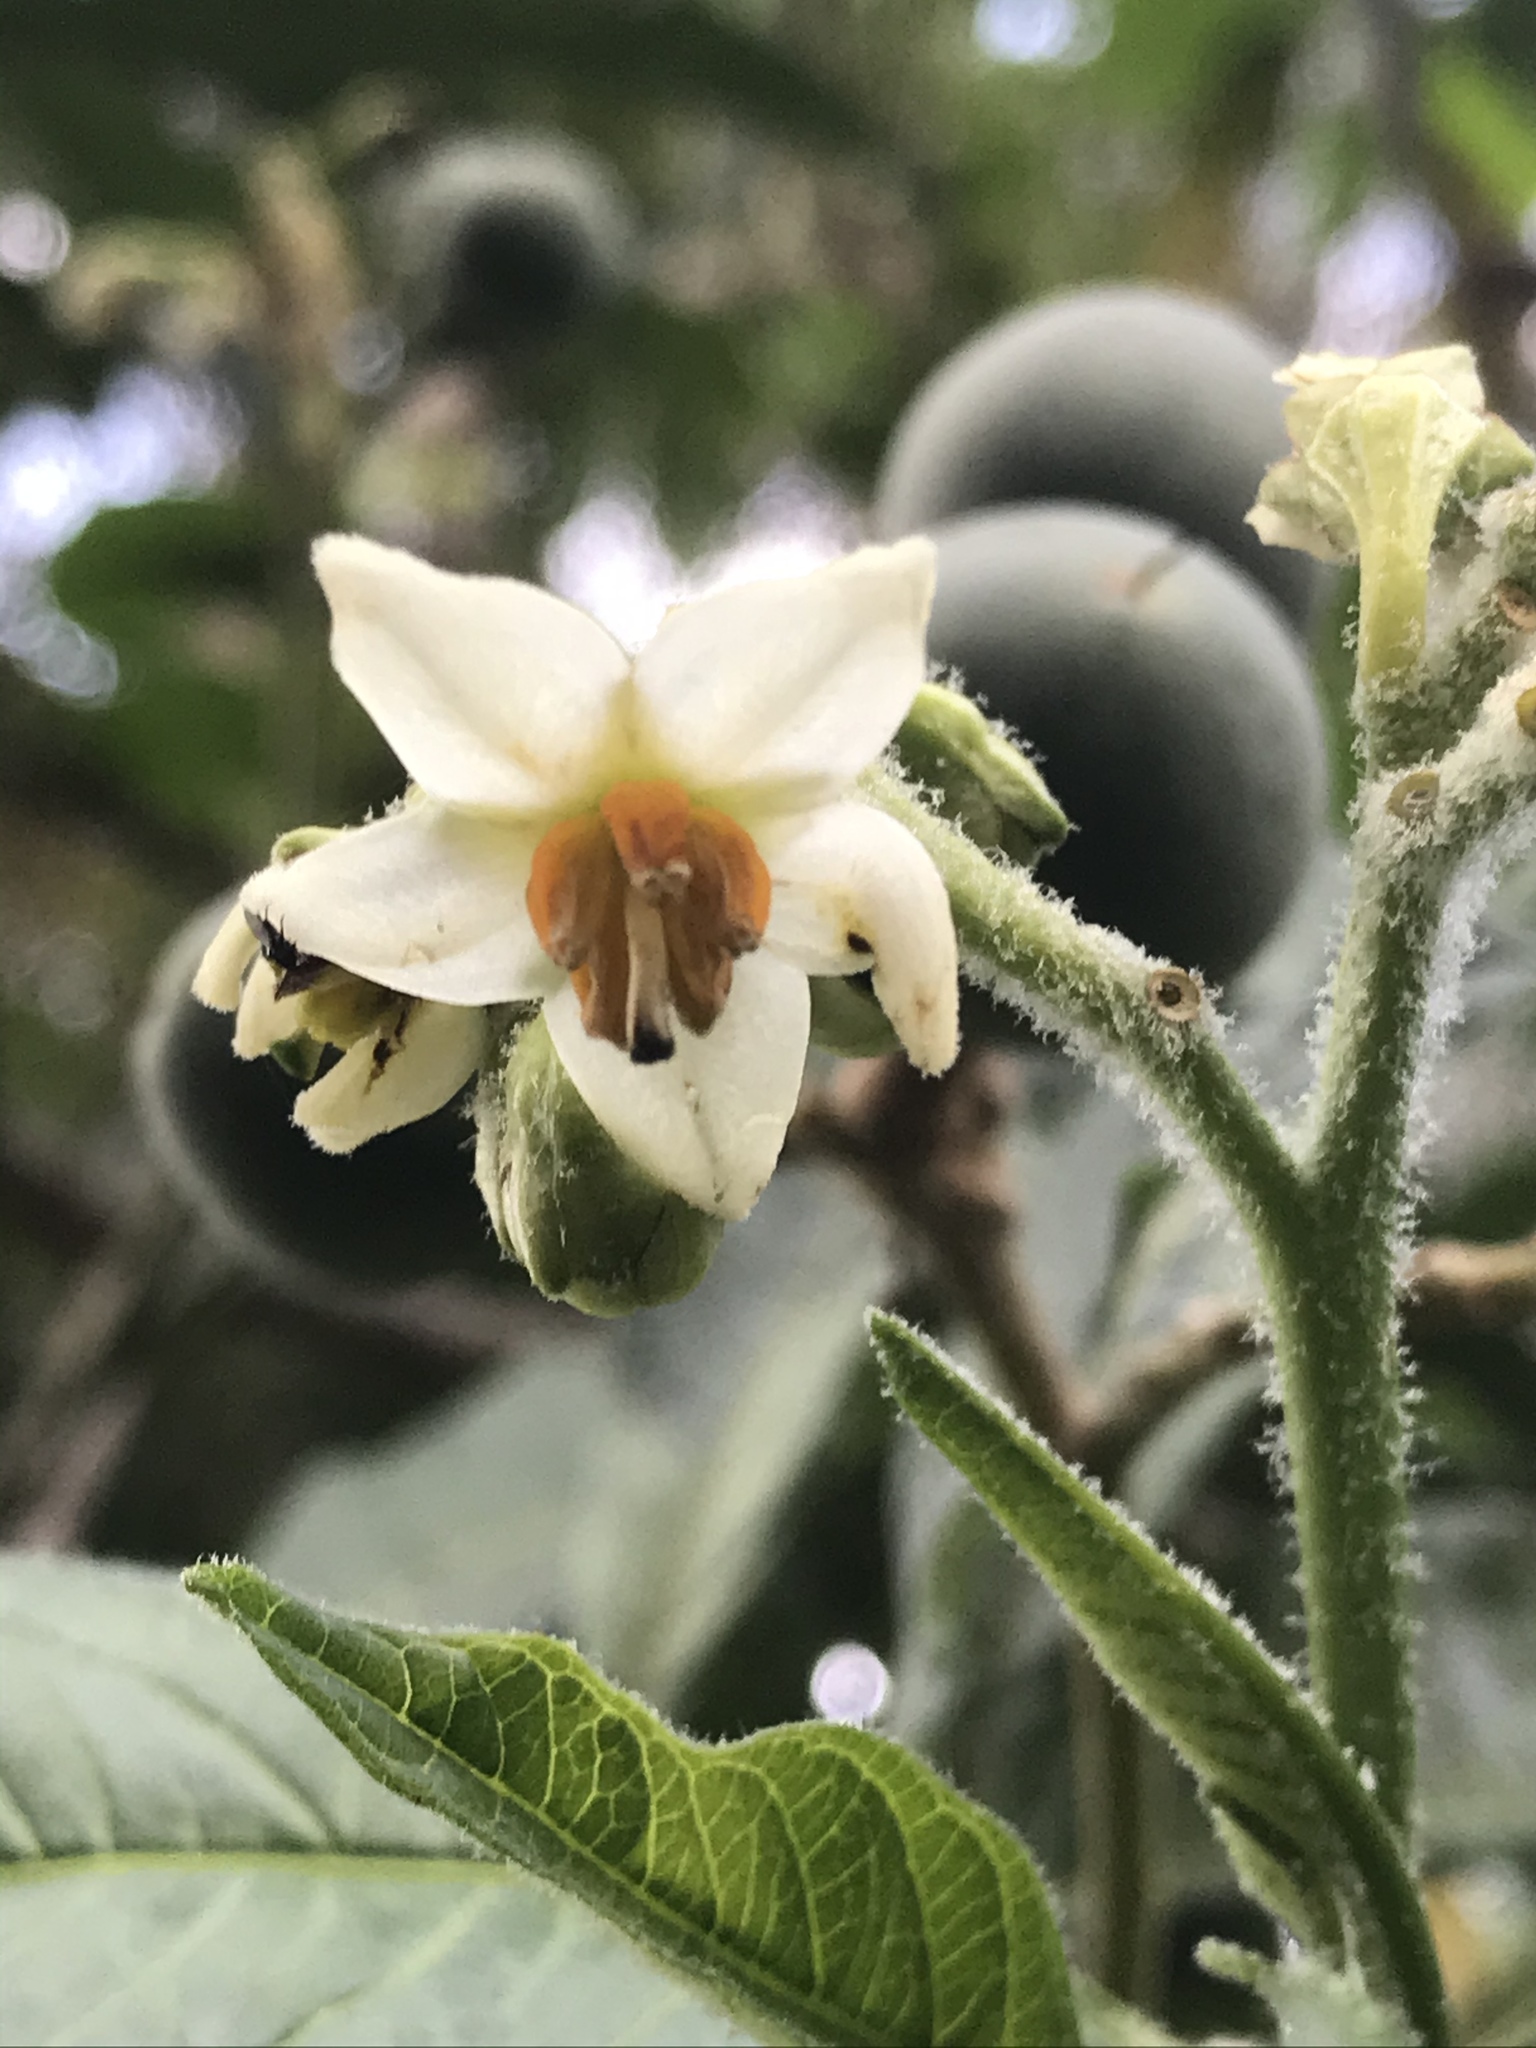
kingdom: Plantae
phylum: Tracheophyta
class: Magnoliopsida
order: Solanales
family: Solanaceae
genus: Solanum
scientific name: Solanum oblongifolium
